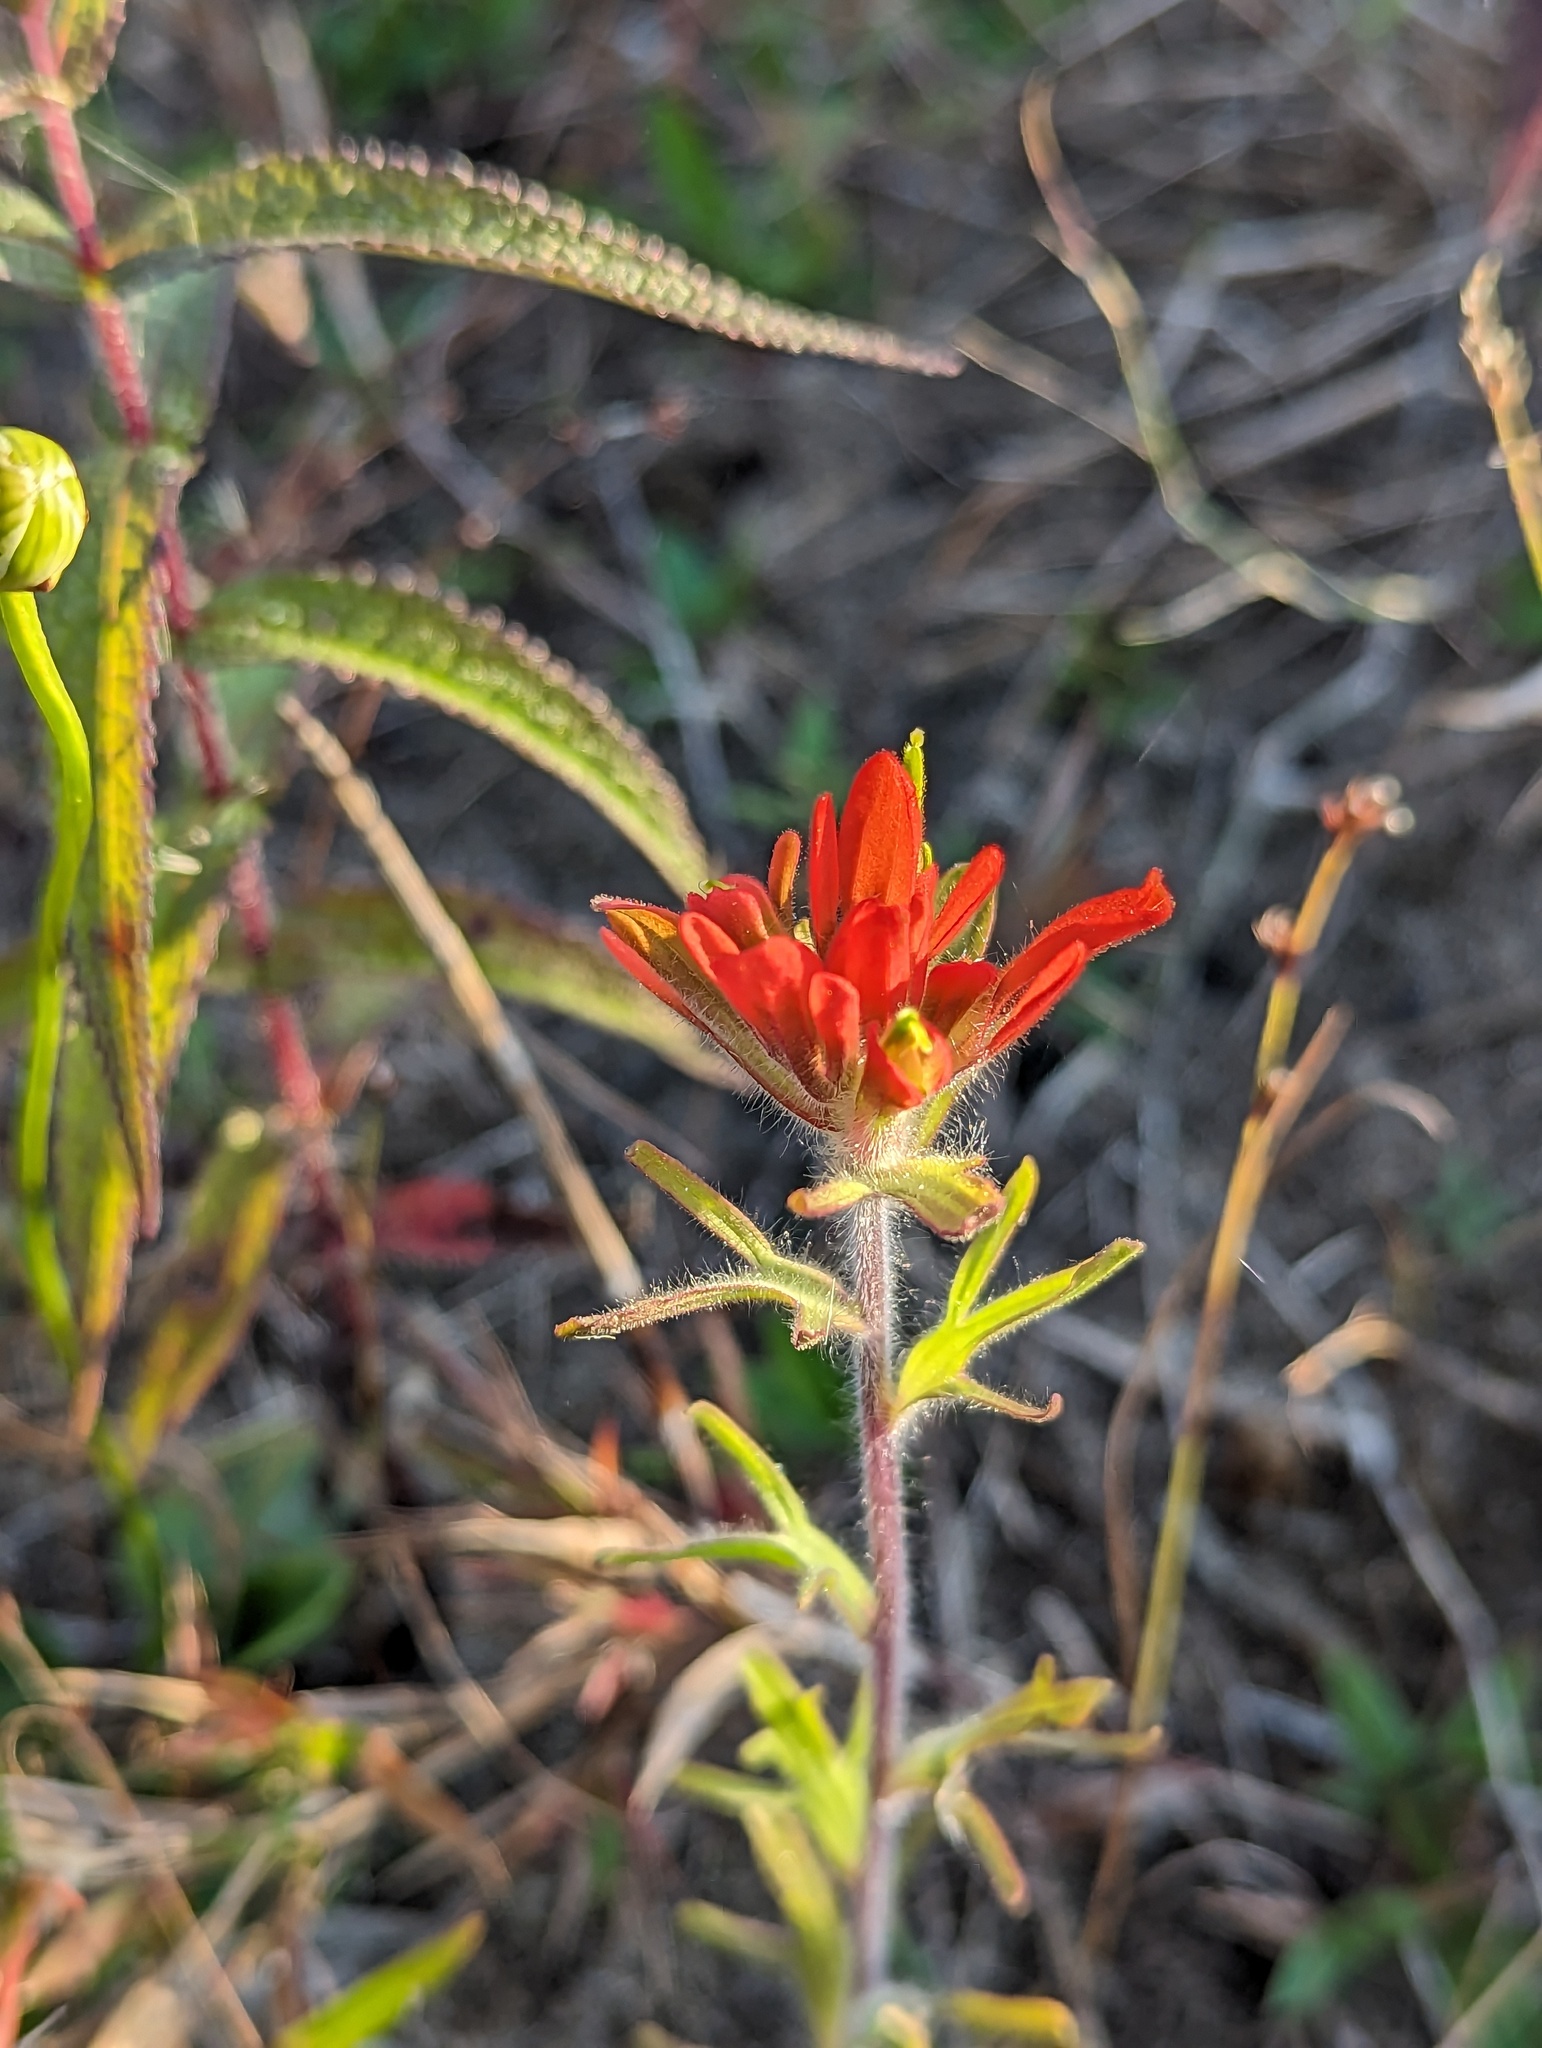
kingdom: Plantae
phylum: Tracheophyta
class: Magnoliopsida
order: Lamiales
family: Orobanchaceae
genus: Castilleja
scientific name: Castilleja coccinea
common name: Scarlet paintbrush
